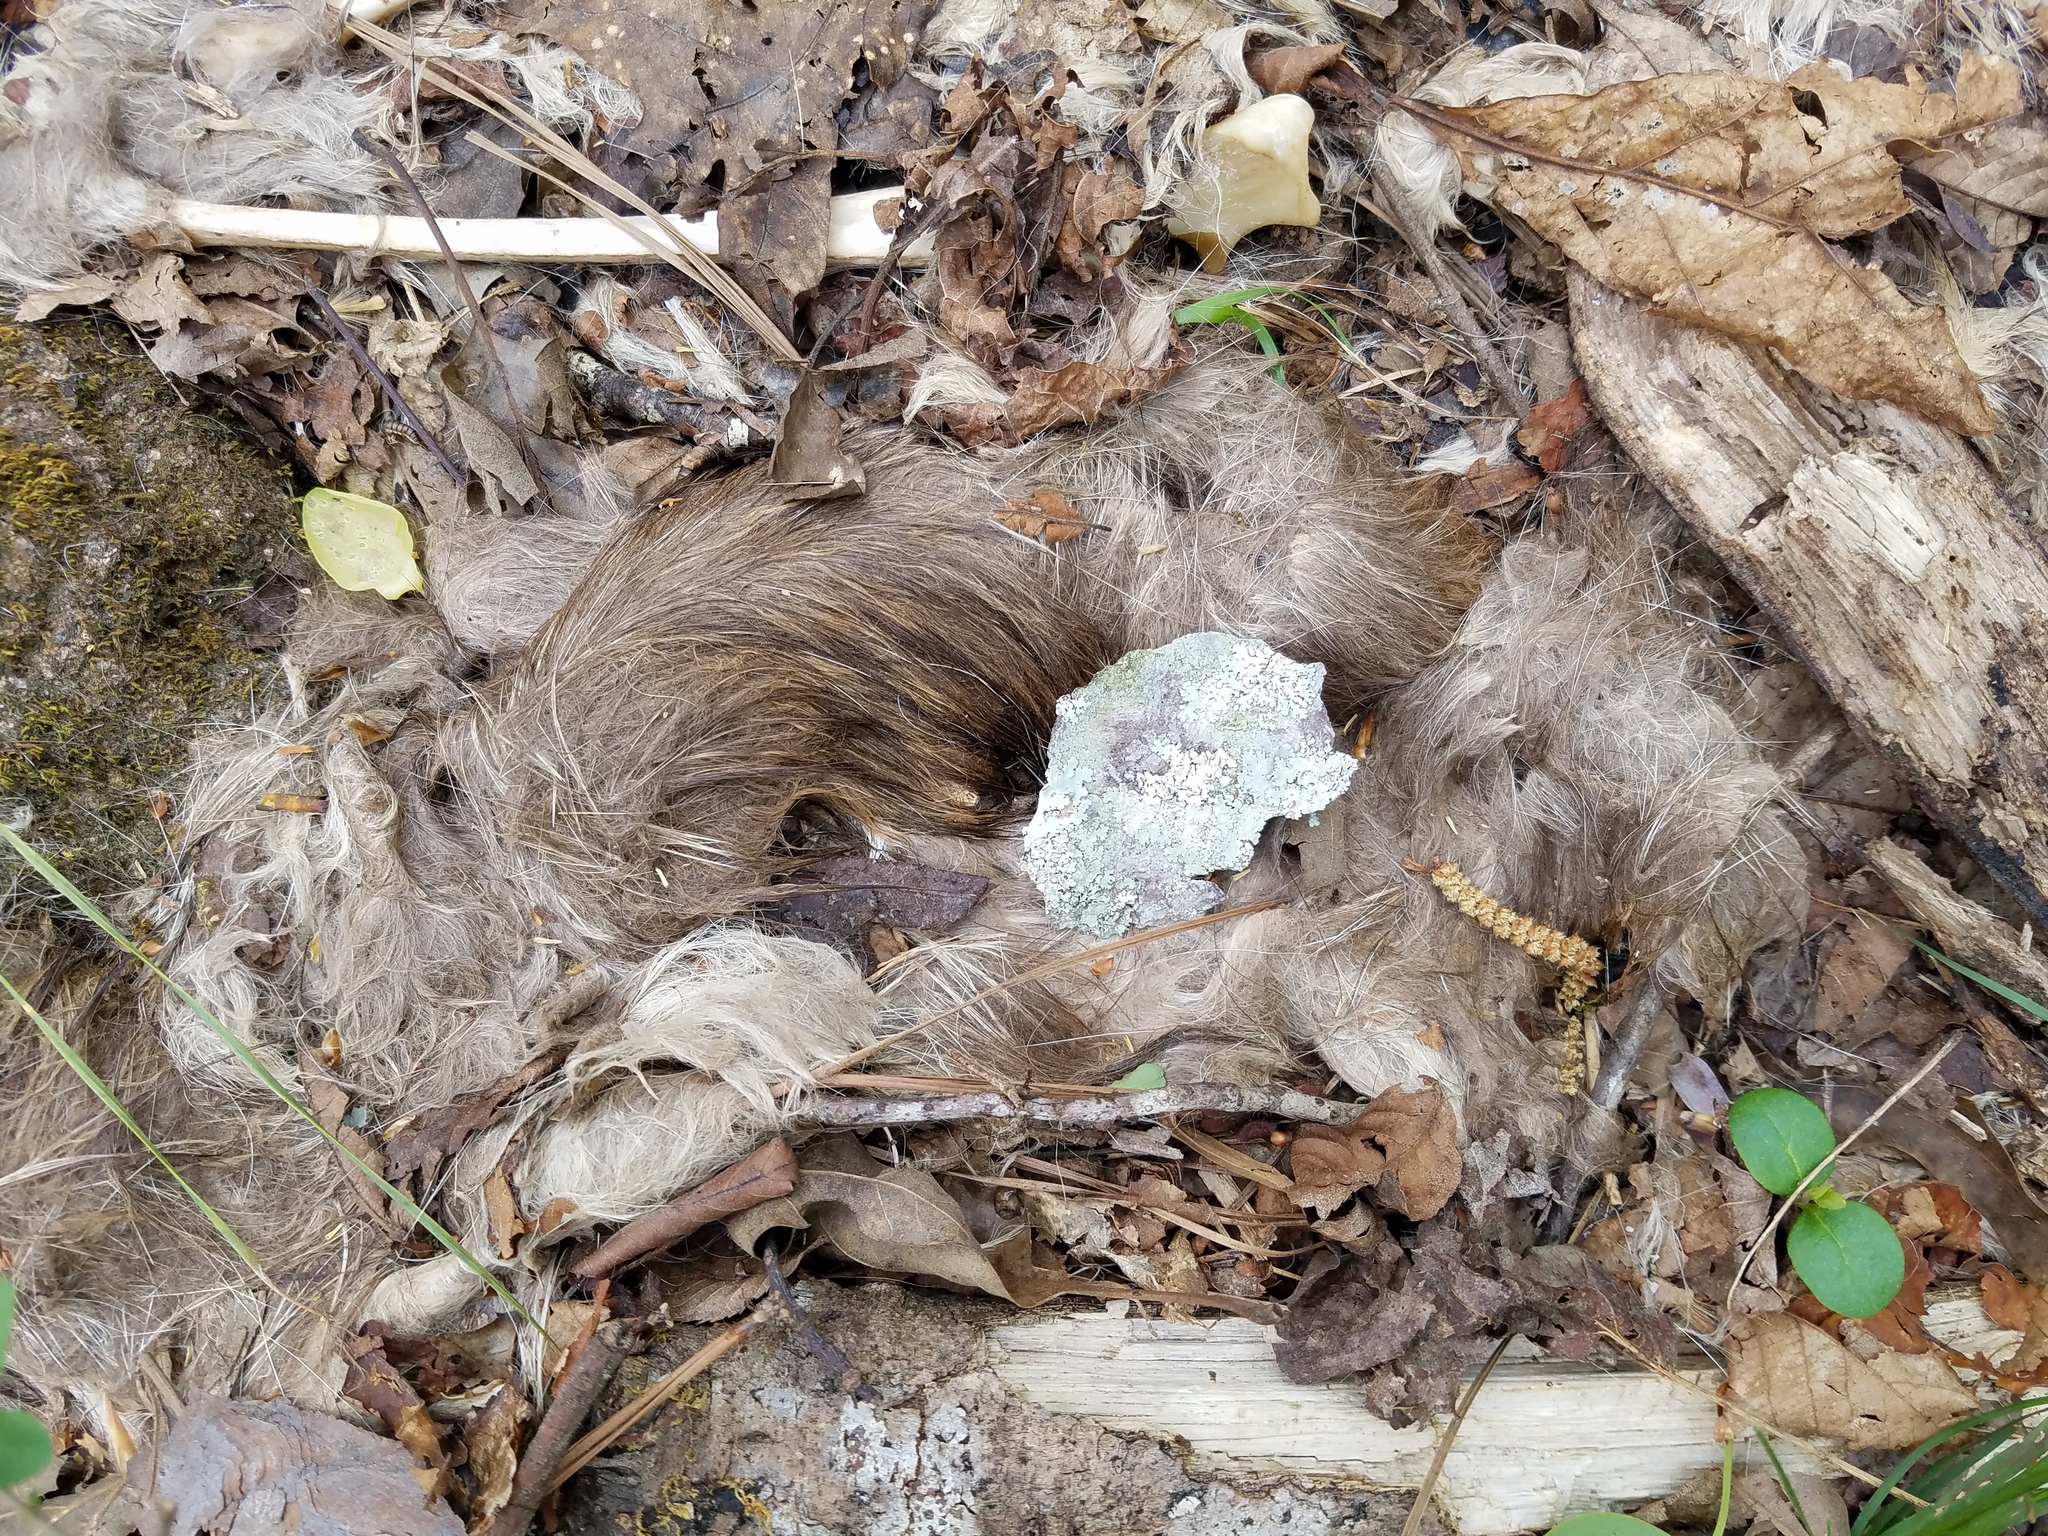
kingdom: Animalia
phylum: Chordata
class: Mammalia
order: Carnivora
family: Canidae
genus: Canis
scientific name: Canis latrans
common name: Coyote
